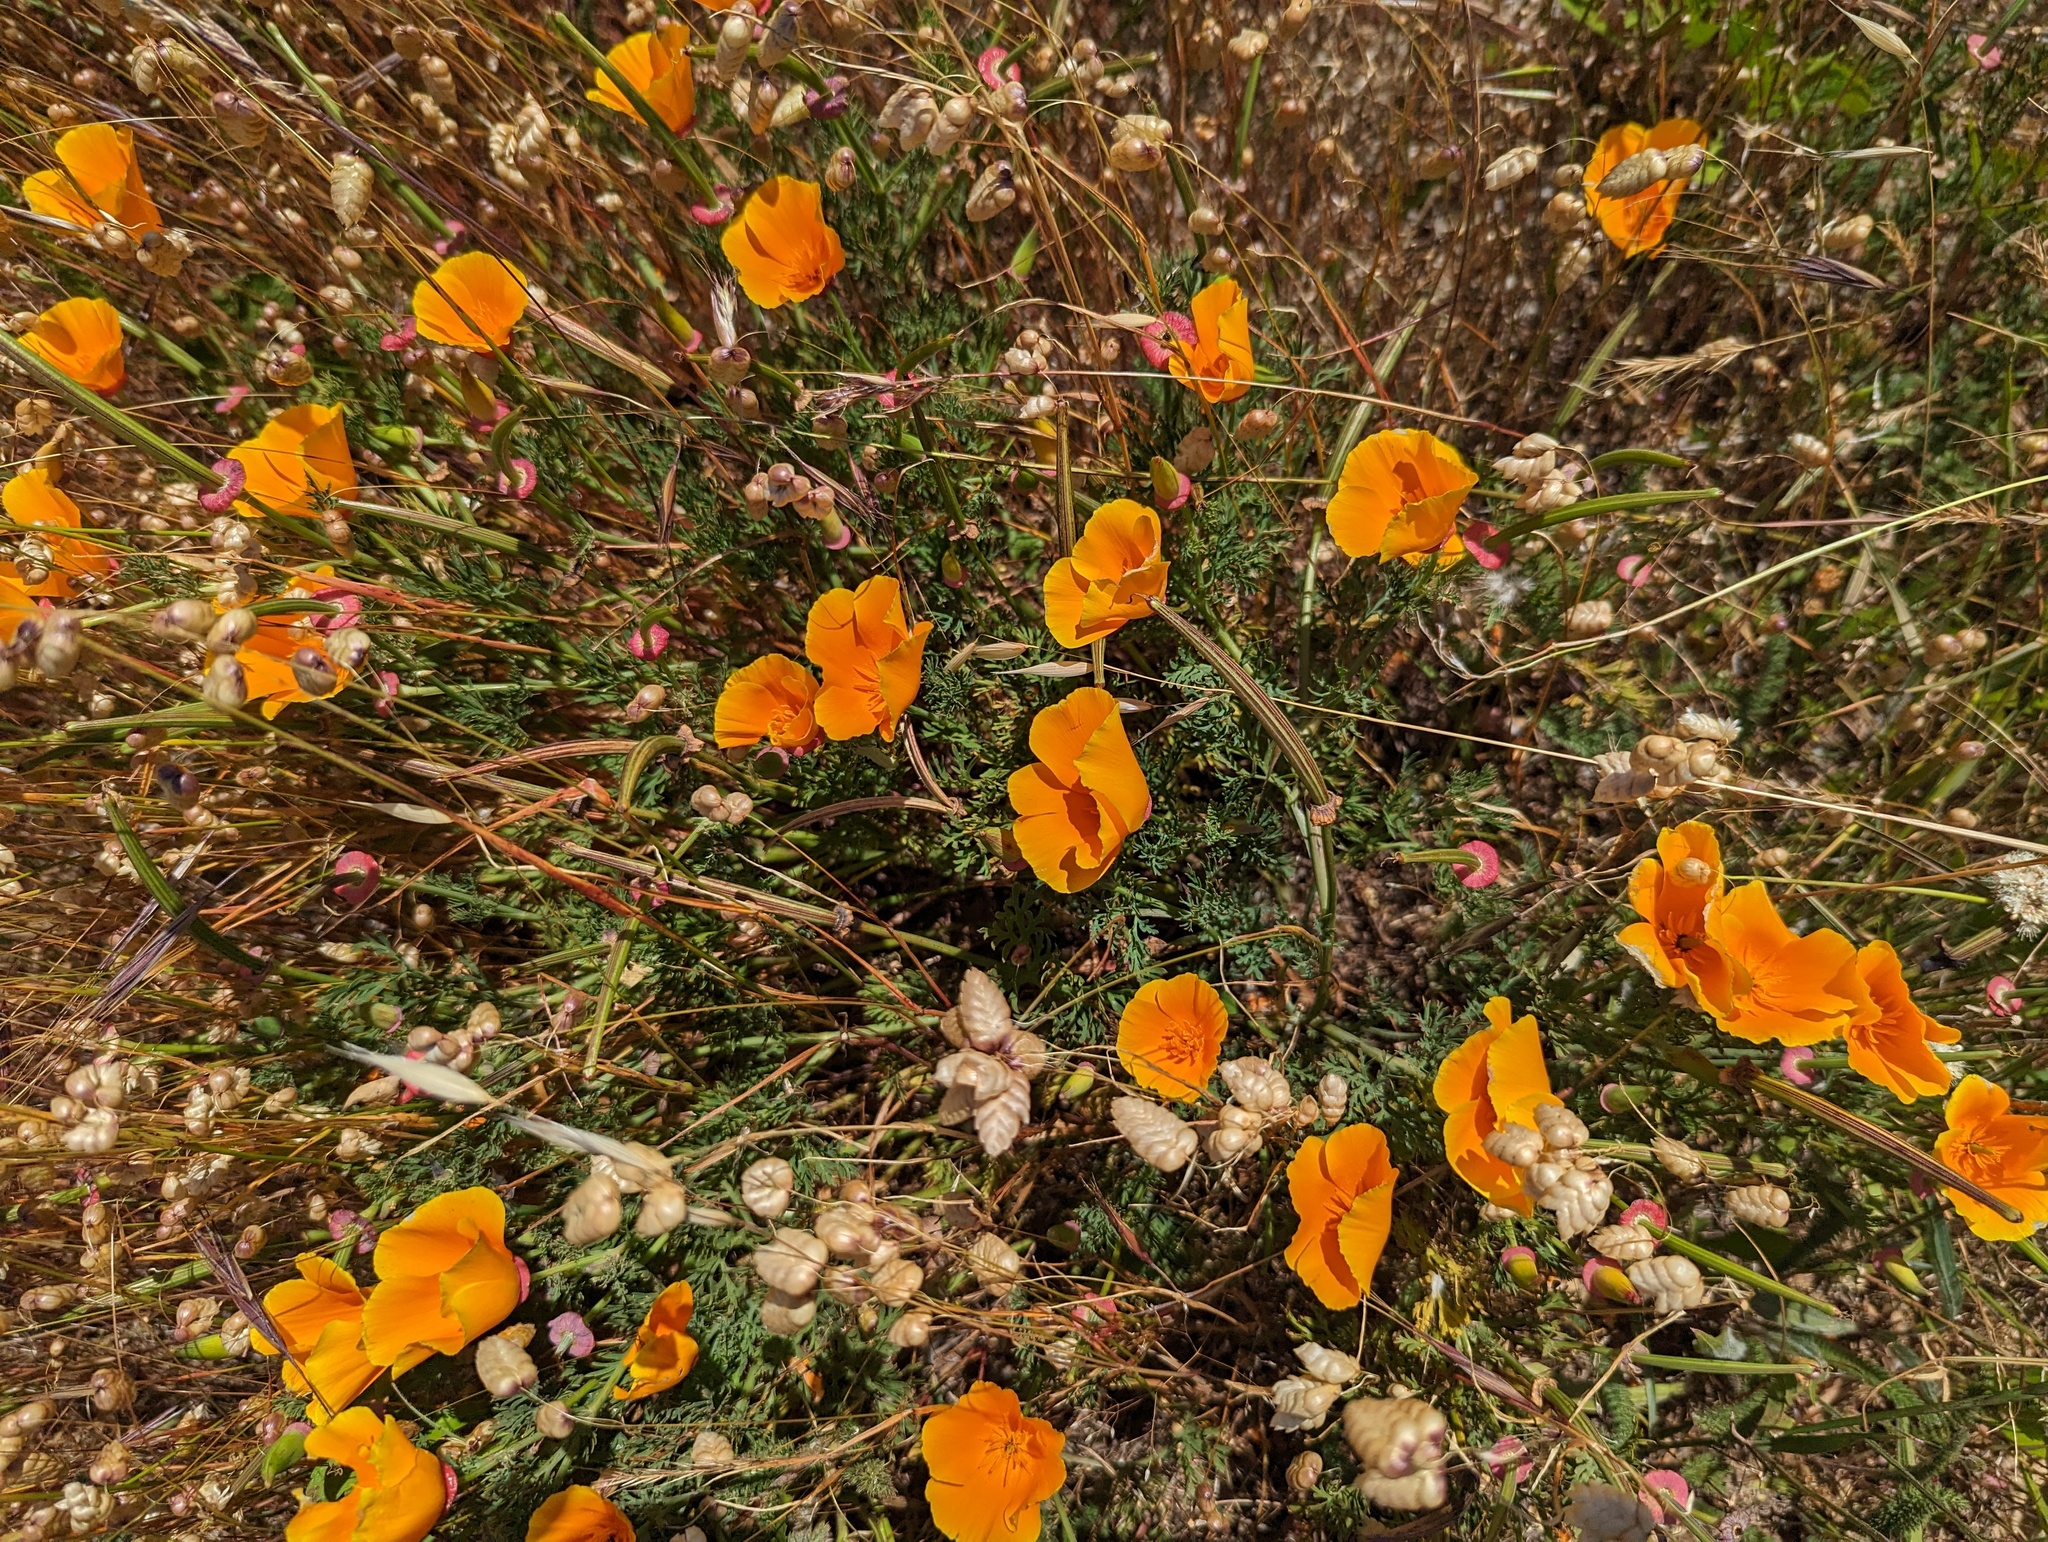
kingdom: Plantae
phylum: Tracheophyta
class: Magnoliopsida
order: Ranunculales
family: Papaveraceae
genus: Eschscholzia
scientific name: Eschscholzia californica
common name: California poppy
